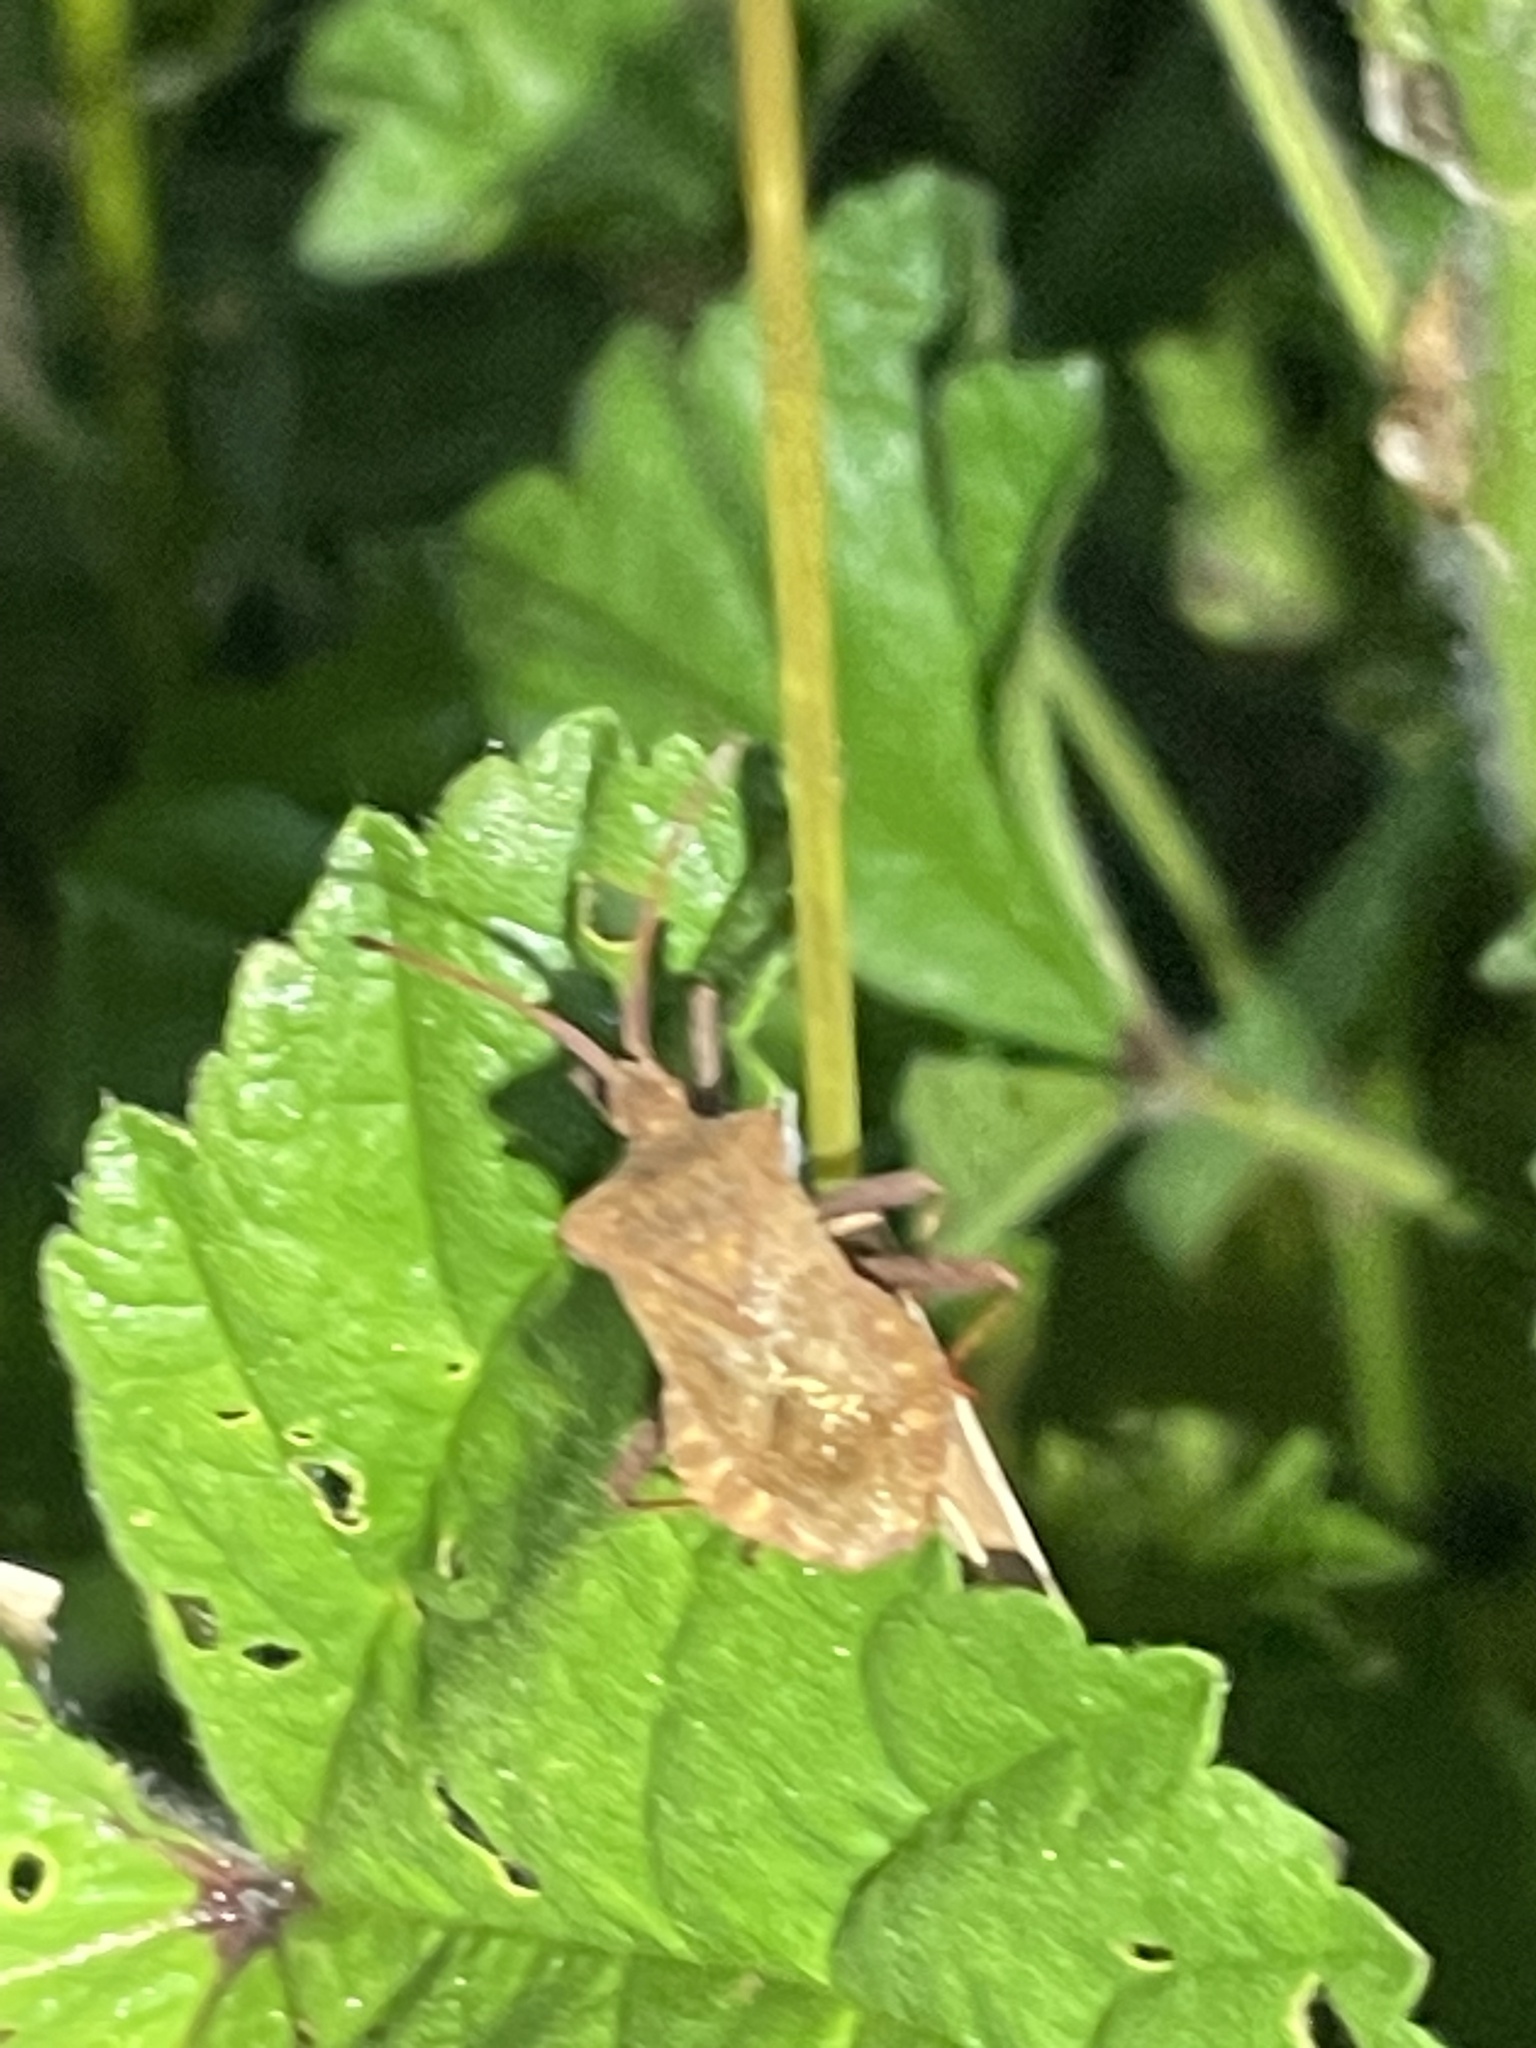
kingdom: Animalia
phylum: Arthropoda
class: Insecta
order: Hemiptera
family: Coreidae
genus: Coreus
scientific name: Coreus marginatus
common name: Dock bug
